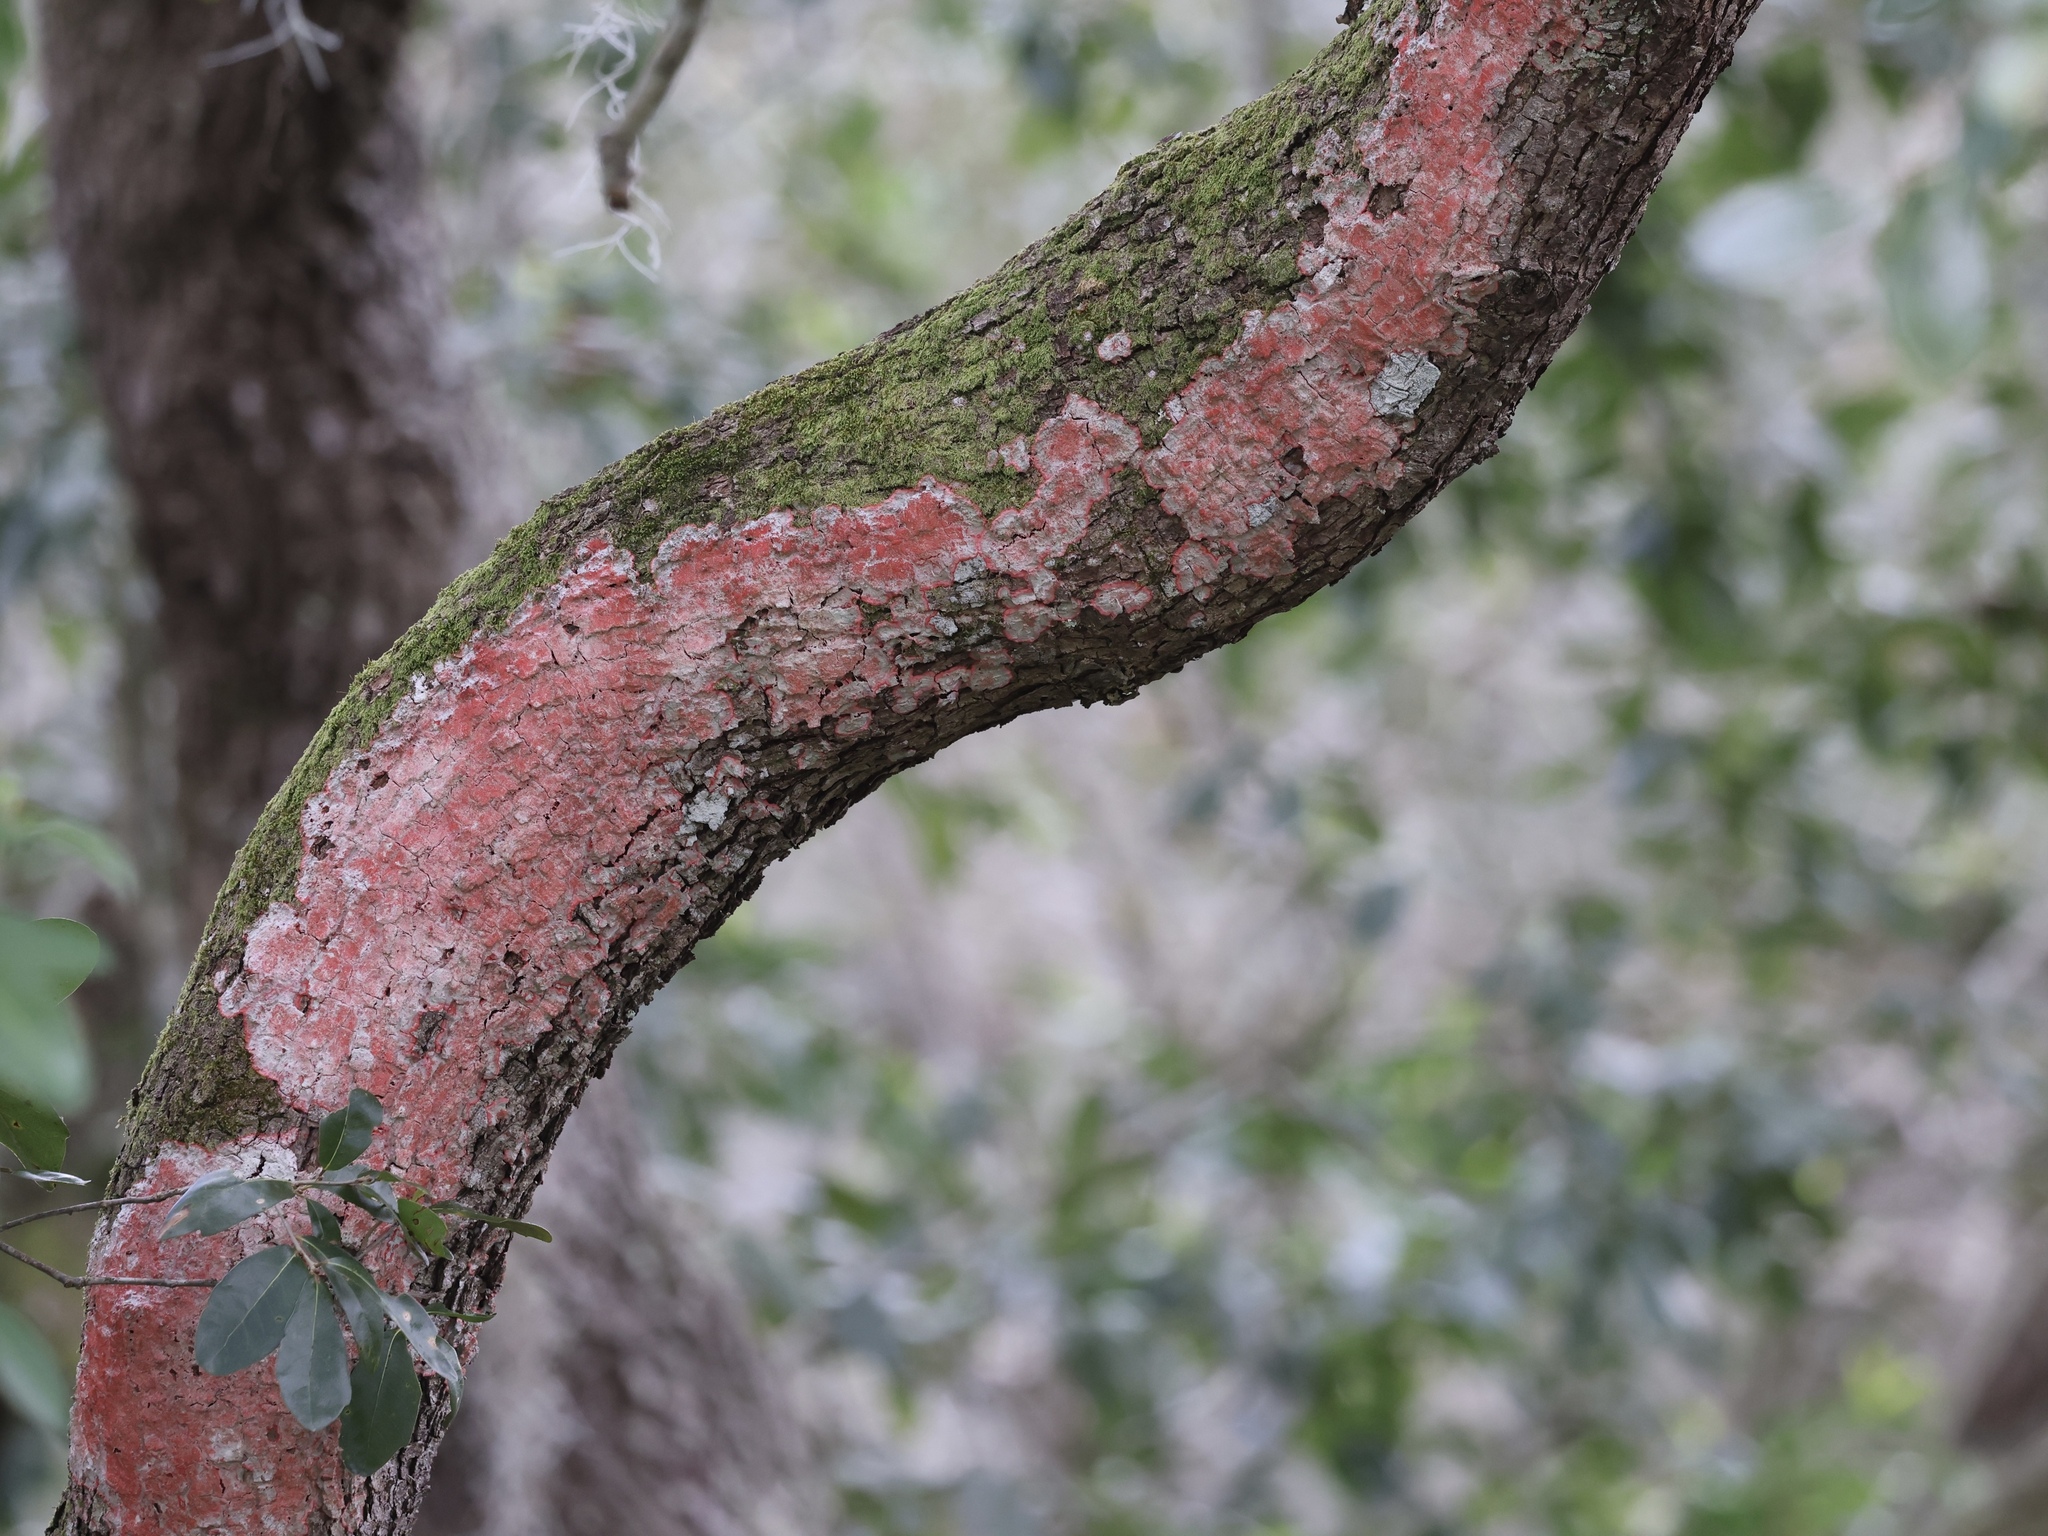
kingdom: Fungi
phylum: Ascomycota
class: Arthoniomycetes
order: Arthoniales
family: Arthoniaceae
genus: Herpothallon
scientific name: Herpothallon rubrocinctum
